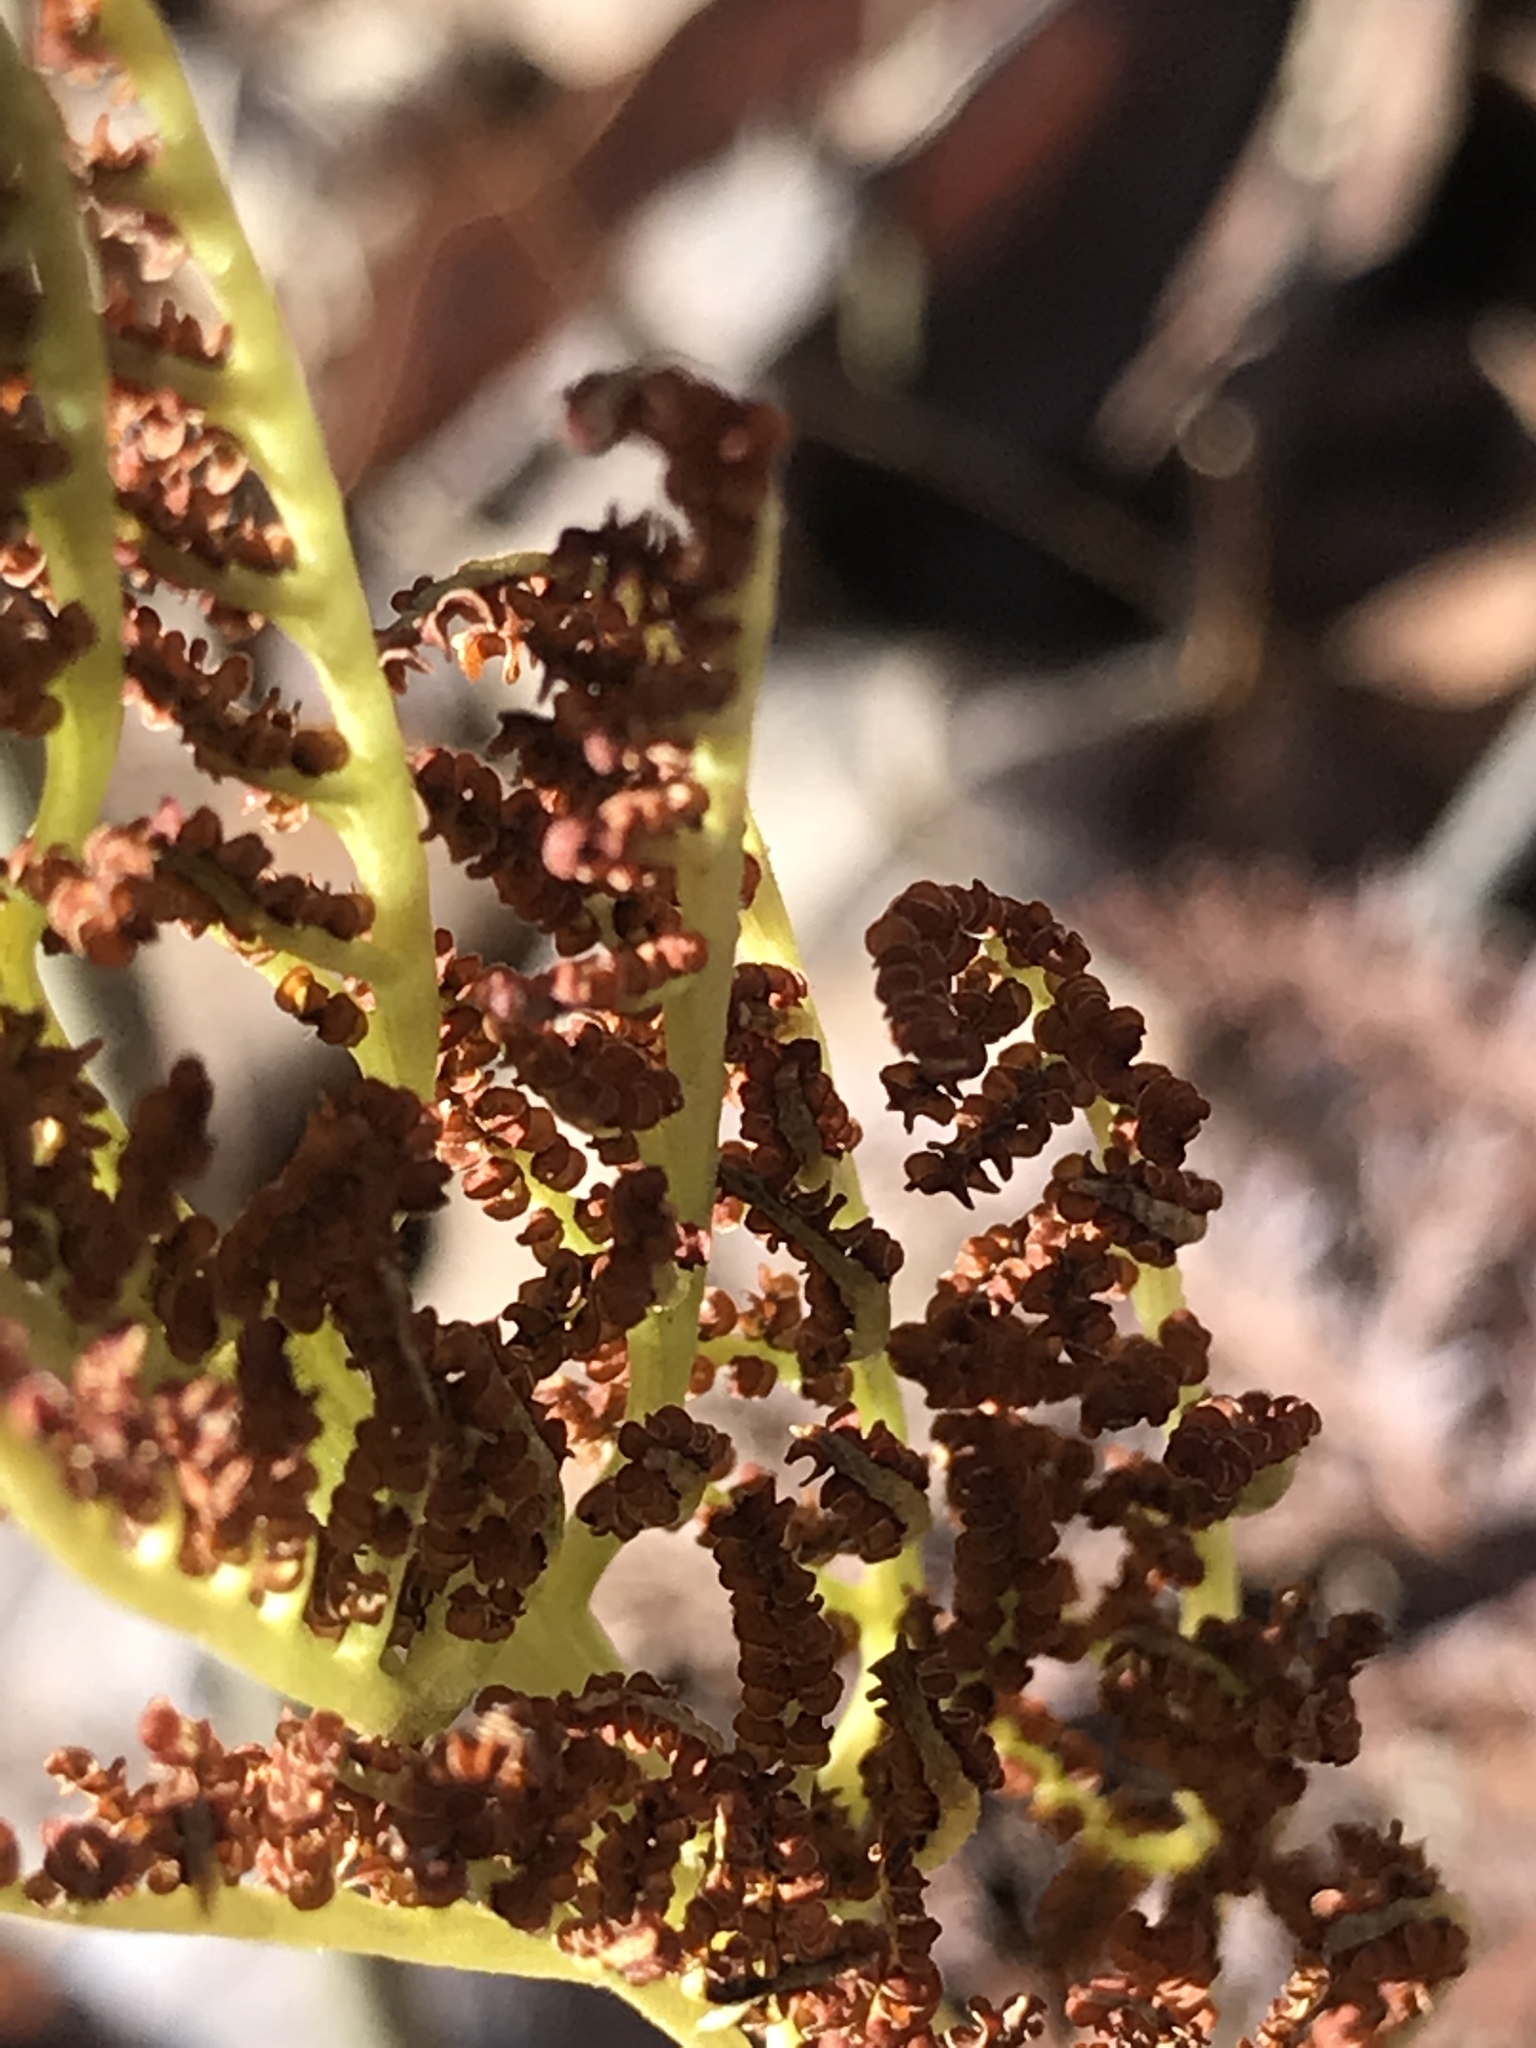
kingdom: Plantae
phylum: Tracheophyta
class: Polypodiopsida
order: Ophioglossales
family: Ophioglossaceae
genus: Sceptridium
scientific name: Sceptridium dissectum
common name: Cut-leaved grapefern
